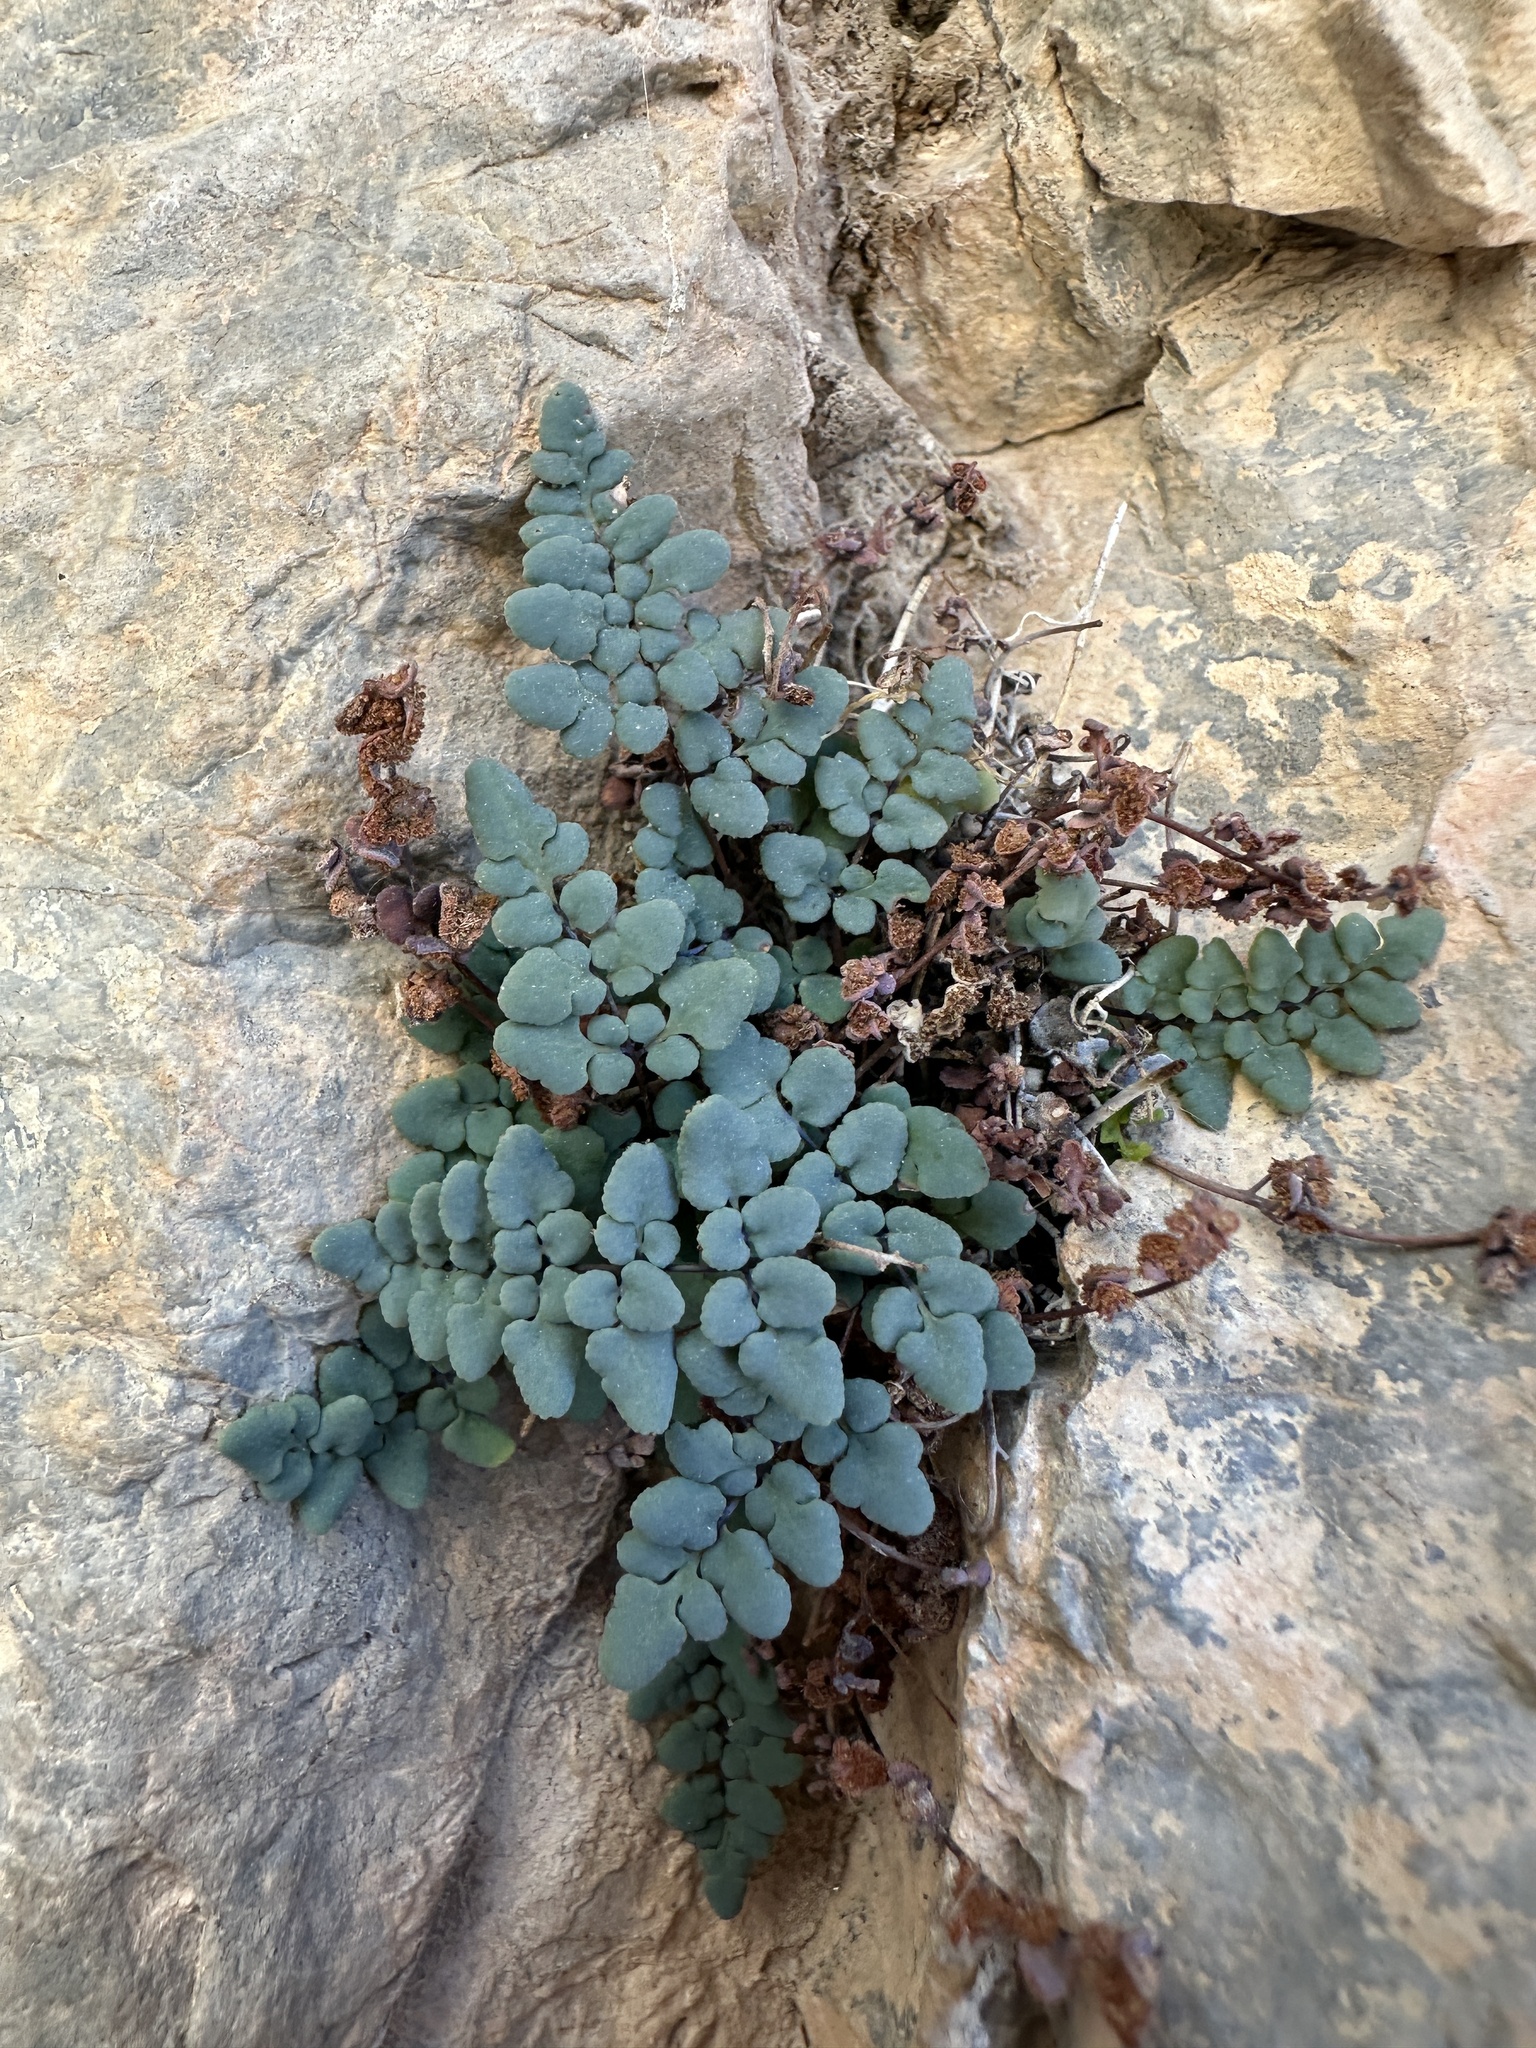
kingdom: Plantae
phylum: Tracheophyta
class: Polypodiopsida
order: Polypodiales
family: Pteridaceae
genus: Argyrochosma
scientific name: Argyrochosma jonesii
